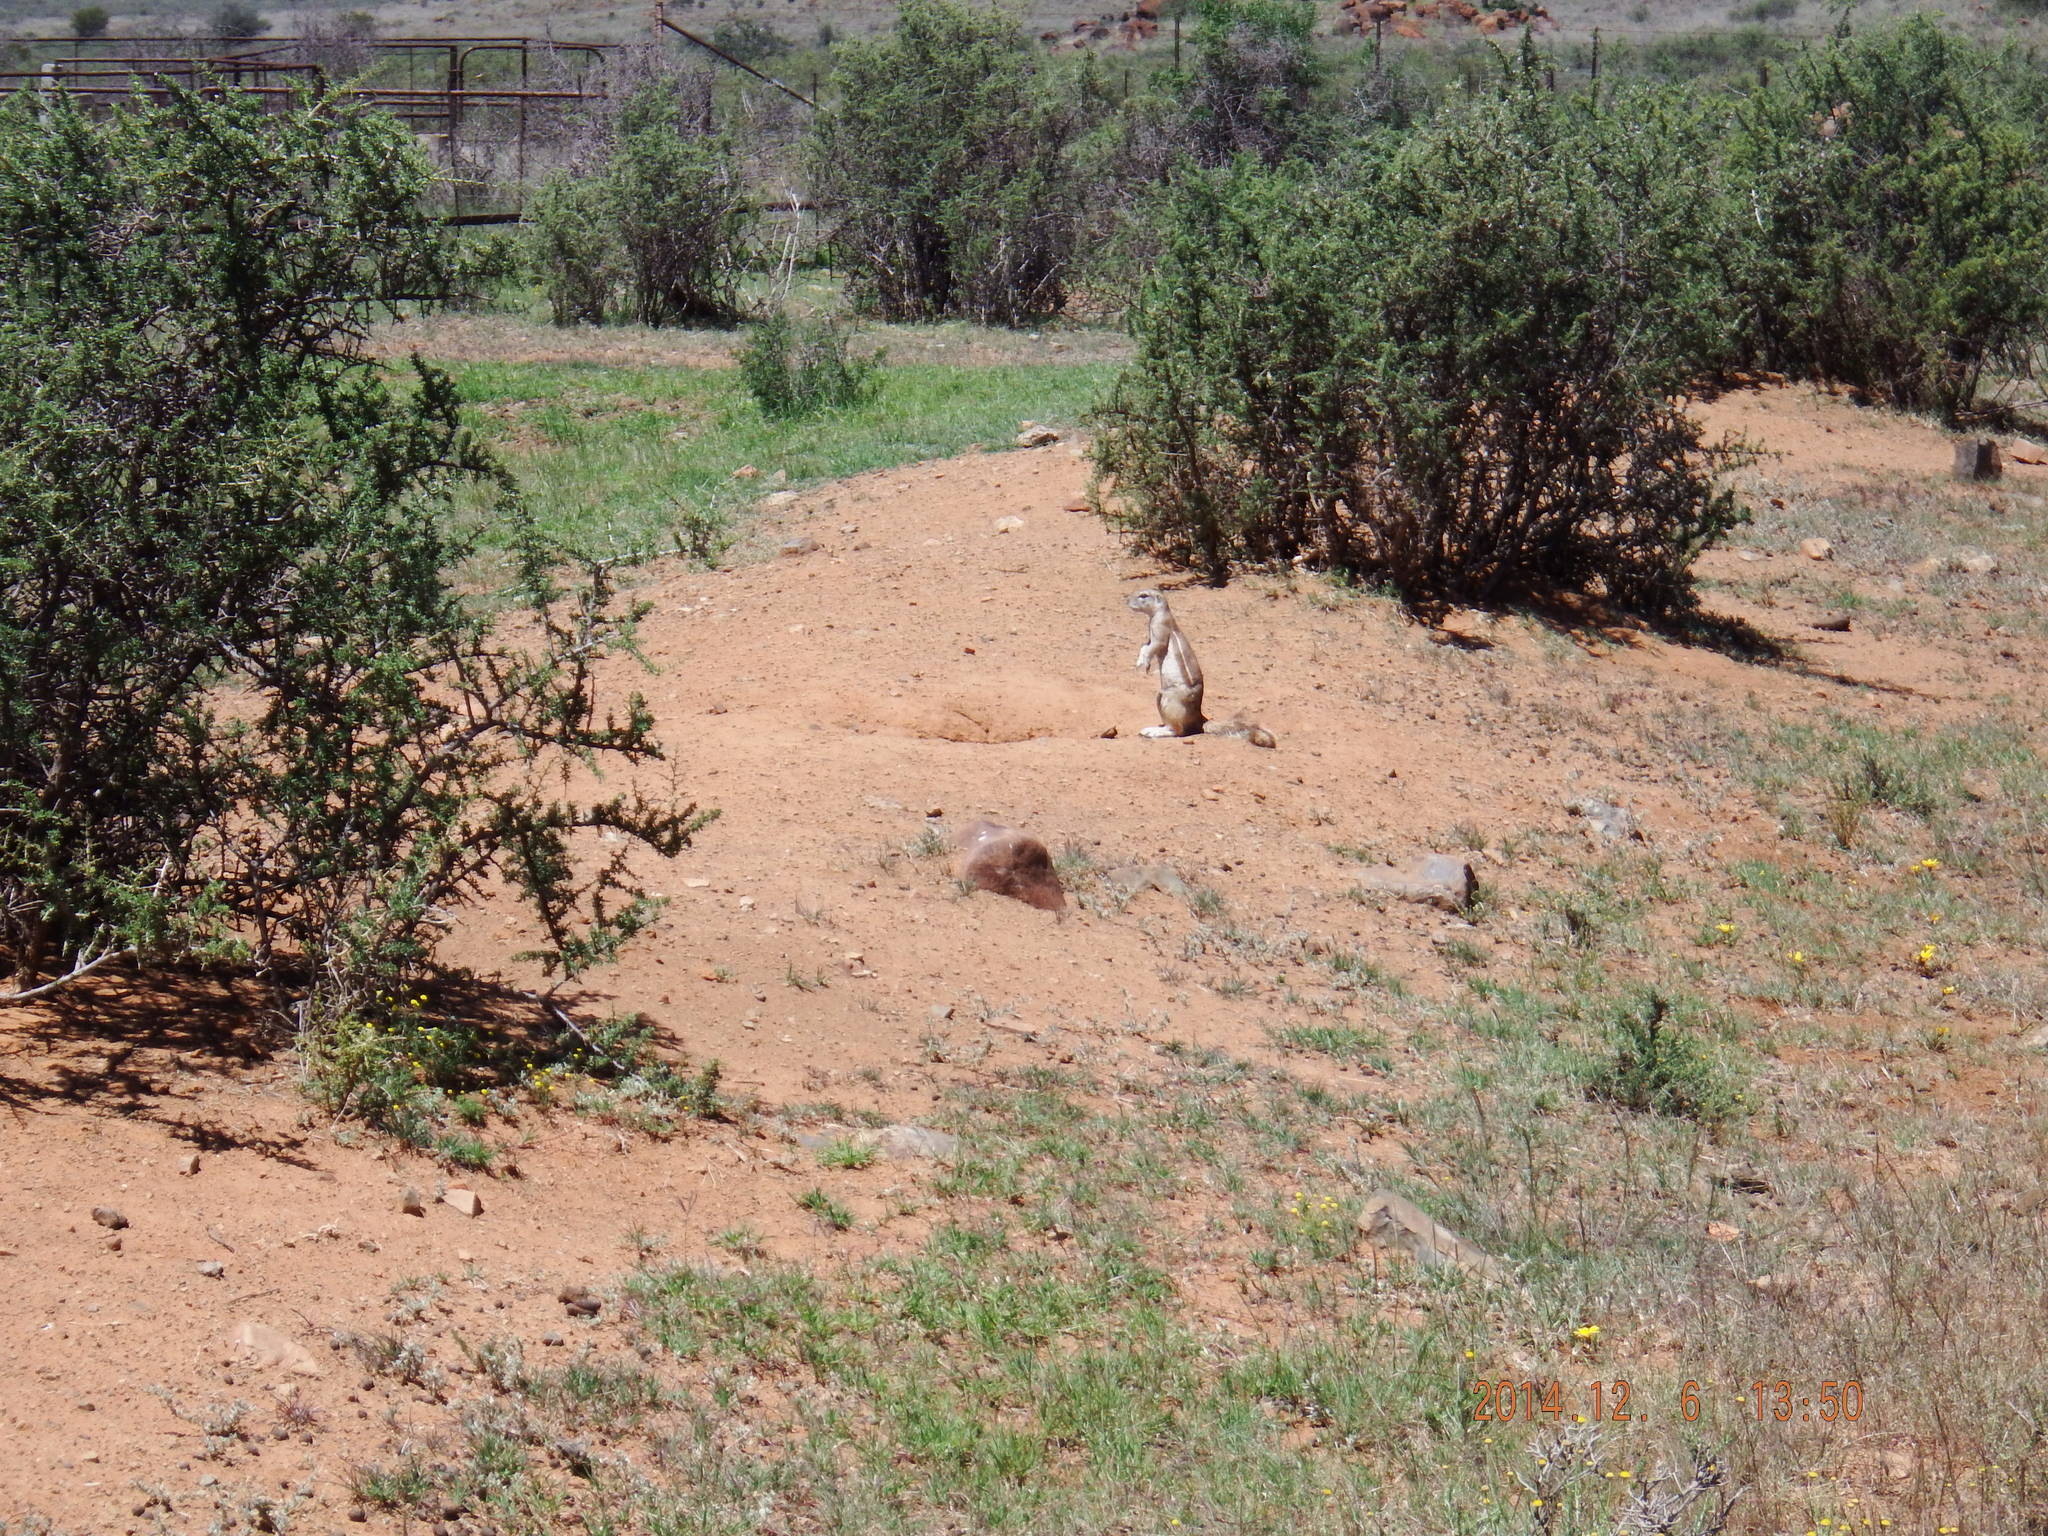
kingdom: Animalia
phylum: Chordata
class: Mammalia
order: Rodentia
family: Sciuridae
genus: Xerus
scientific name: Xerus inauris
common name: South african ground squirrel
